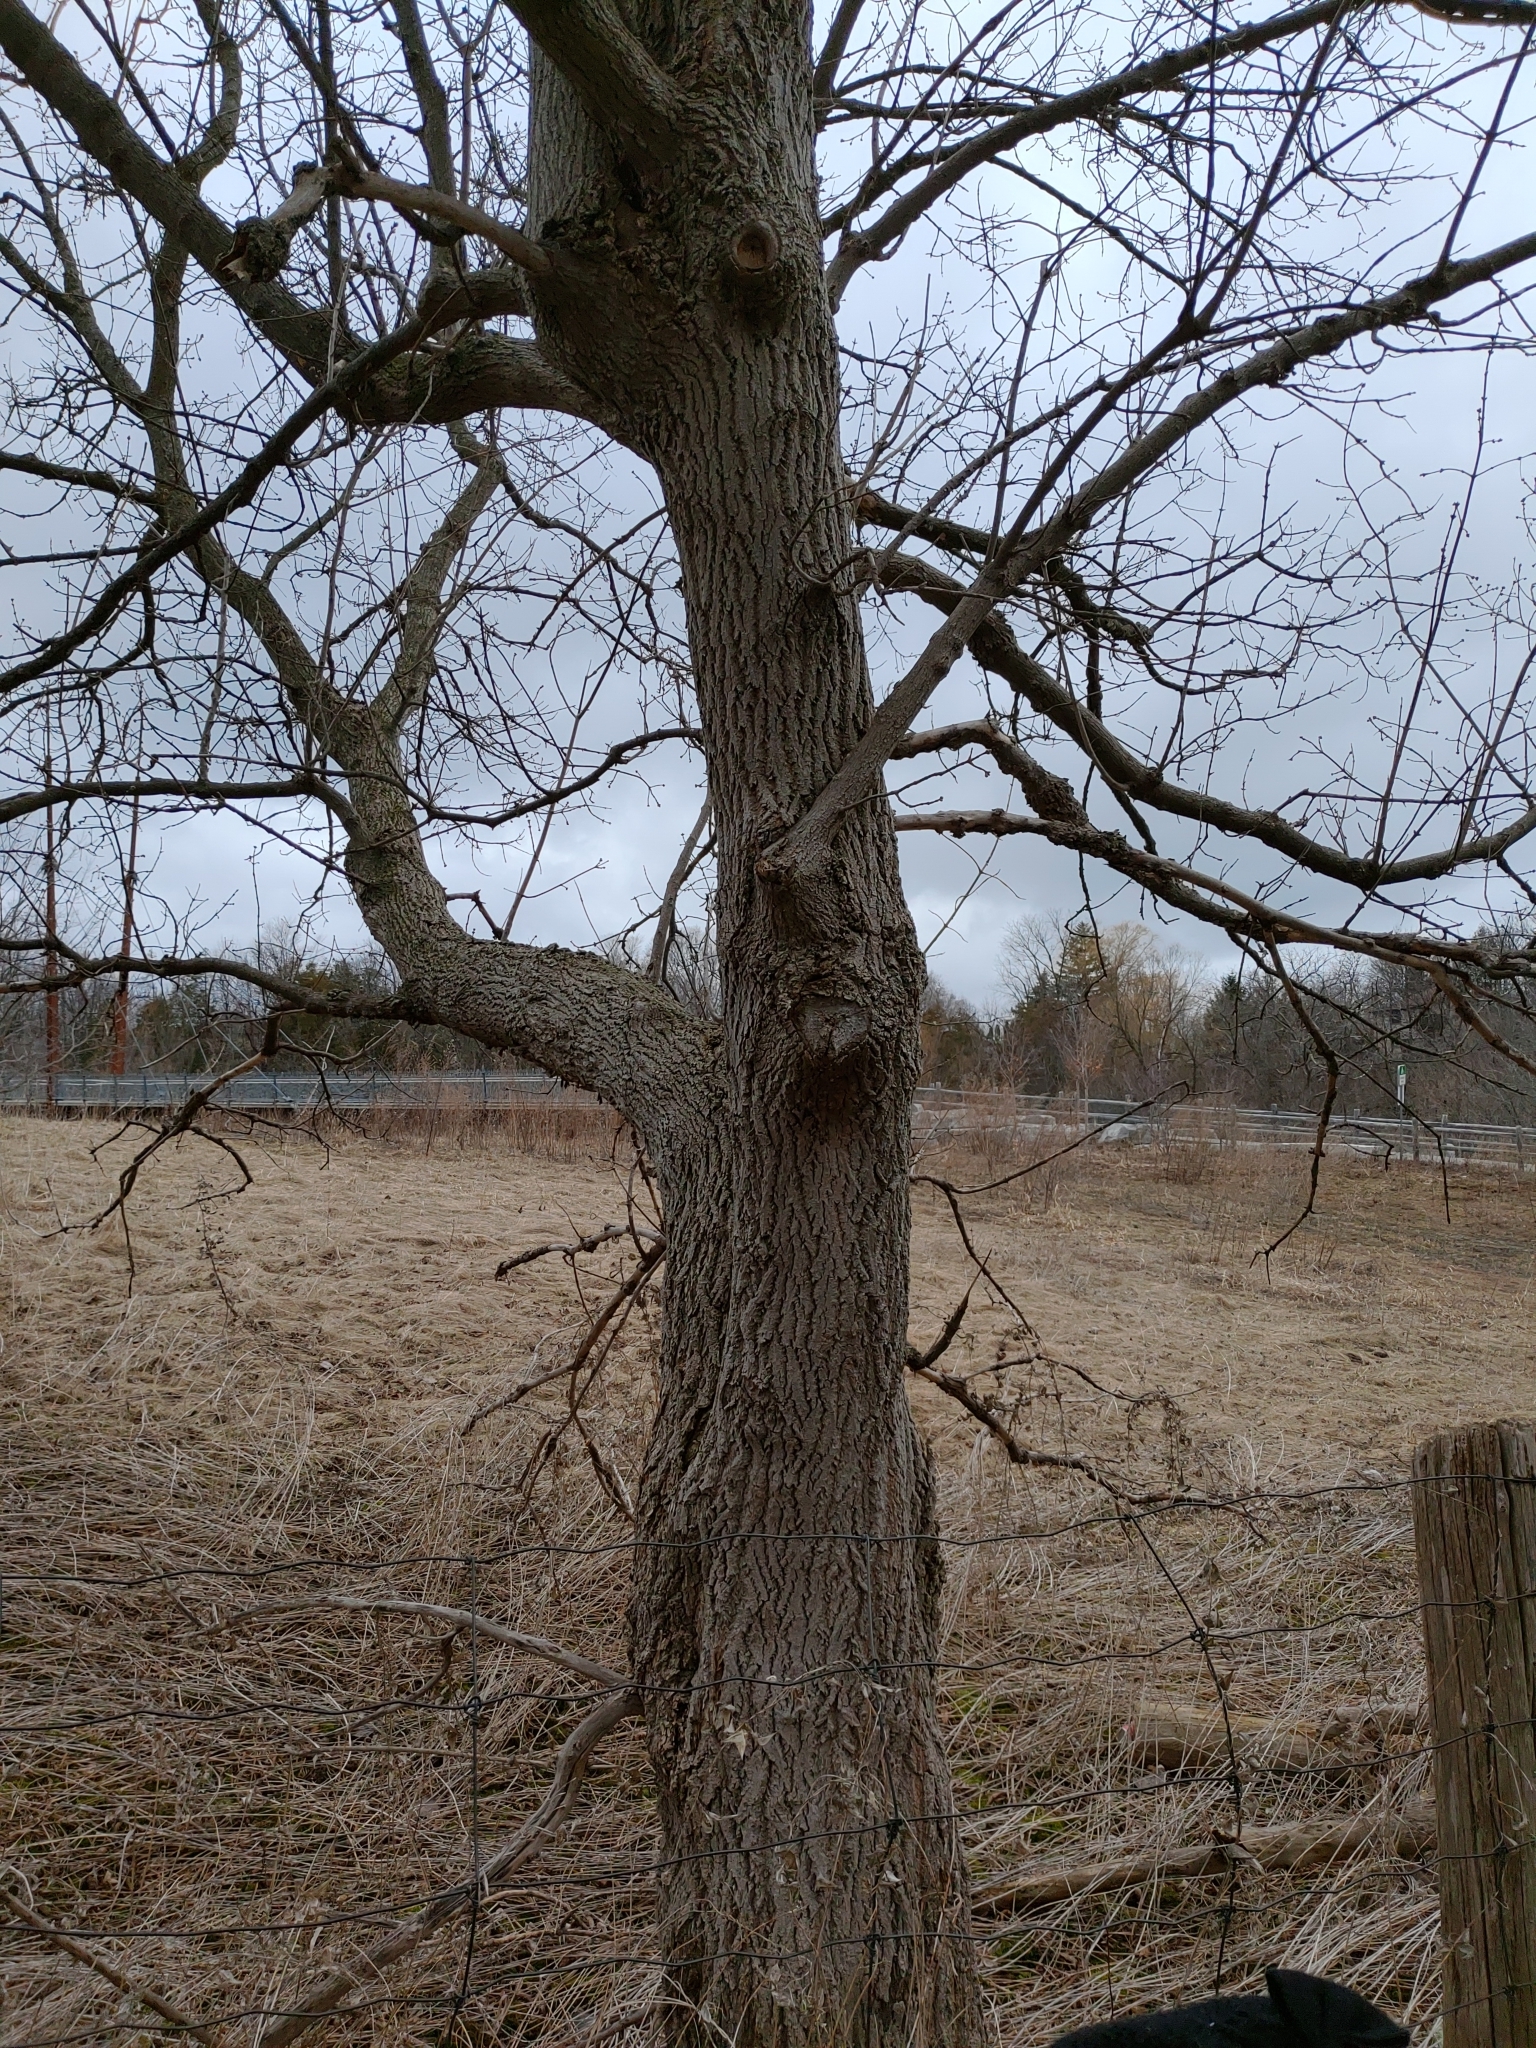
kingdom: Plantae
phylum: Tracheophyta
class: Magnoliopsida
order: Sapindales
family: Sapindaceae
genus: Acer
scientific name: Acer negundo
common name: Ashleaf maple
